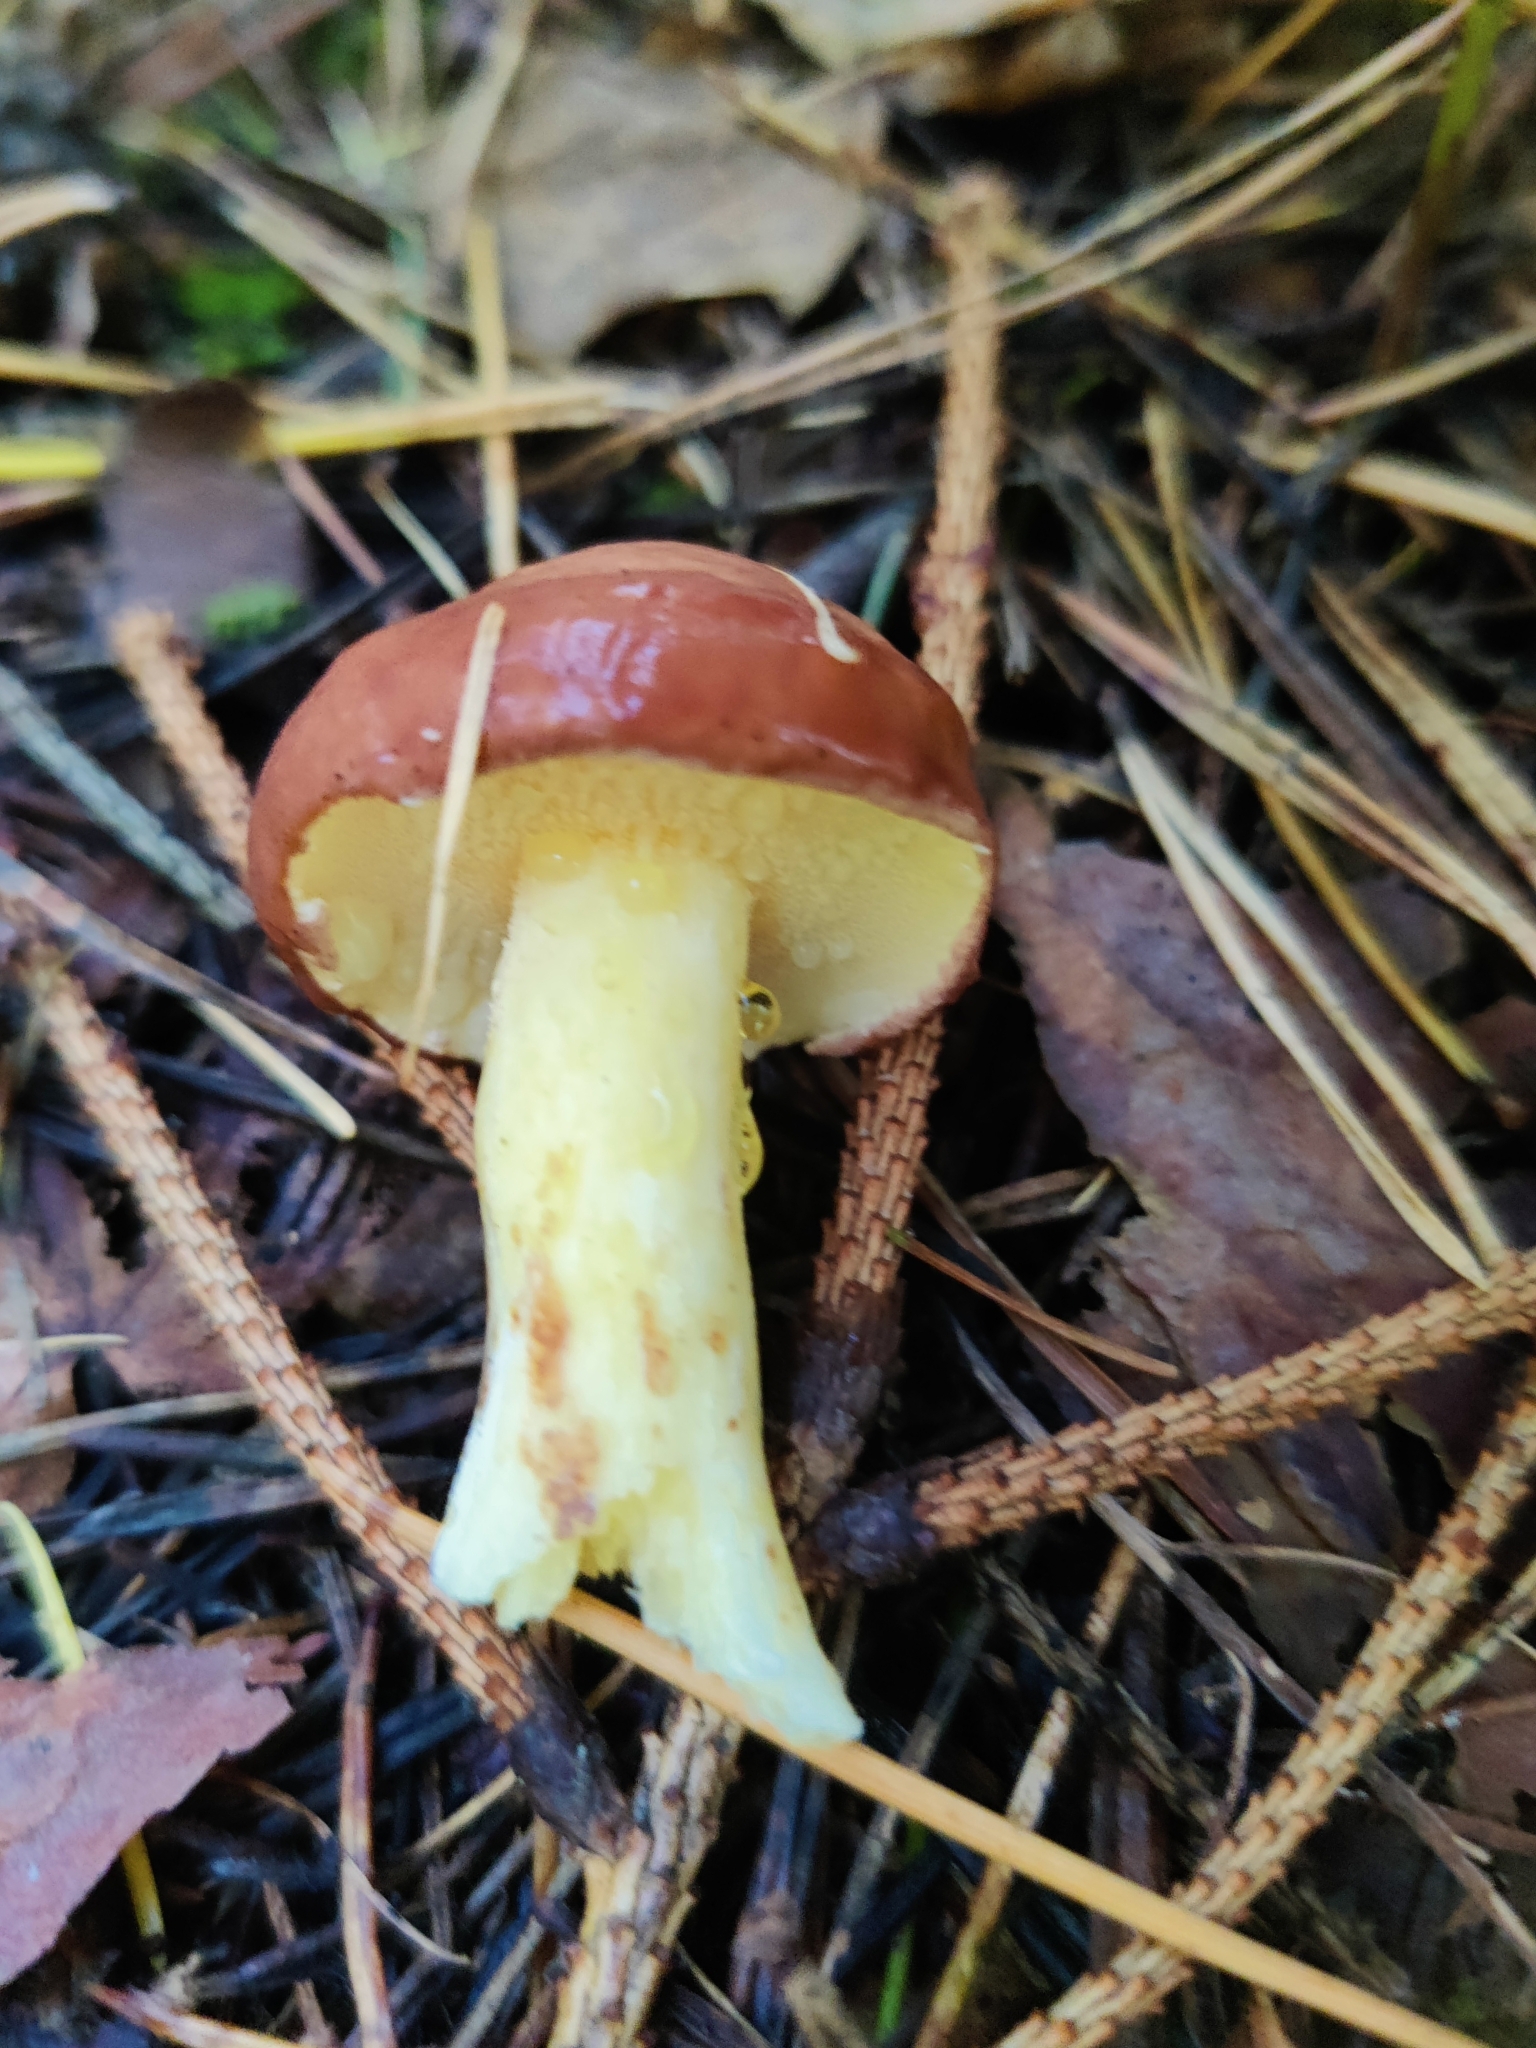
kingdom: Fungi
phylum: Basidiomycota
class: Agaricomycetes
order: Boletales
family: Suillaceae
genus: Suillus
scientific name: Suillus luteus
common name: Slippery jack
